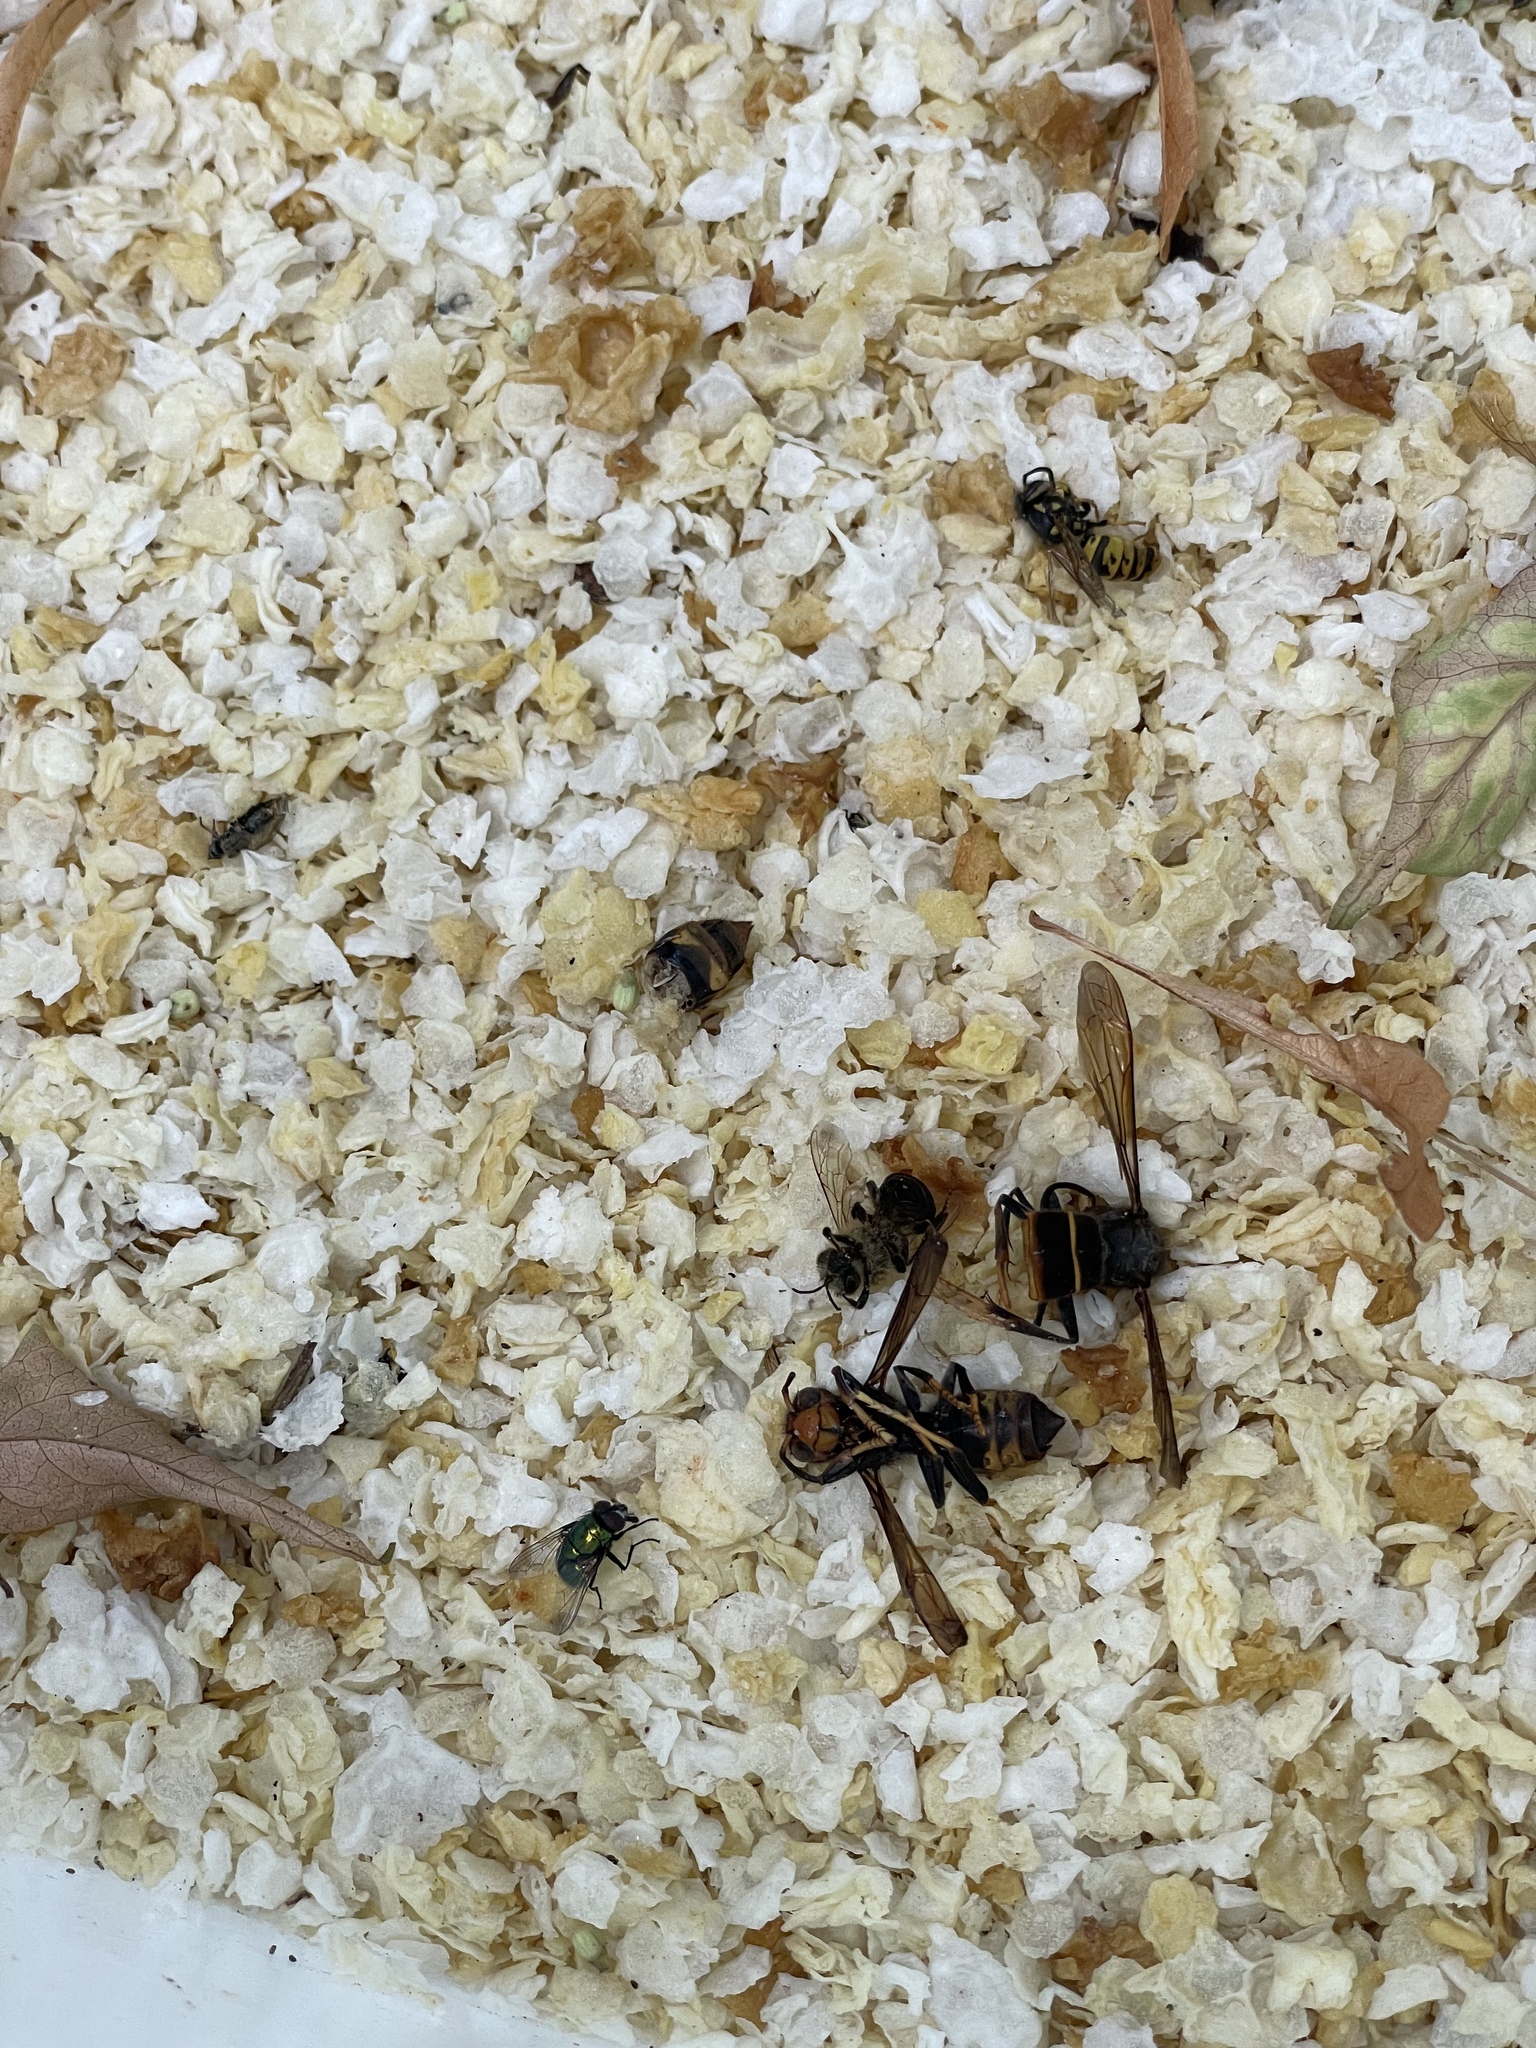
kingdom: Animalia
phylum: Arthropoda
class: Insecta
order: Hymenoptera
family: Vespidae
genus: Vespa
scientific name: Vespa velutina
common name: Asian hornet
